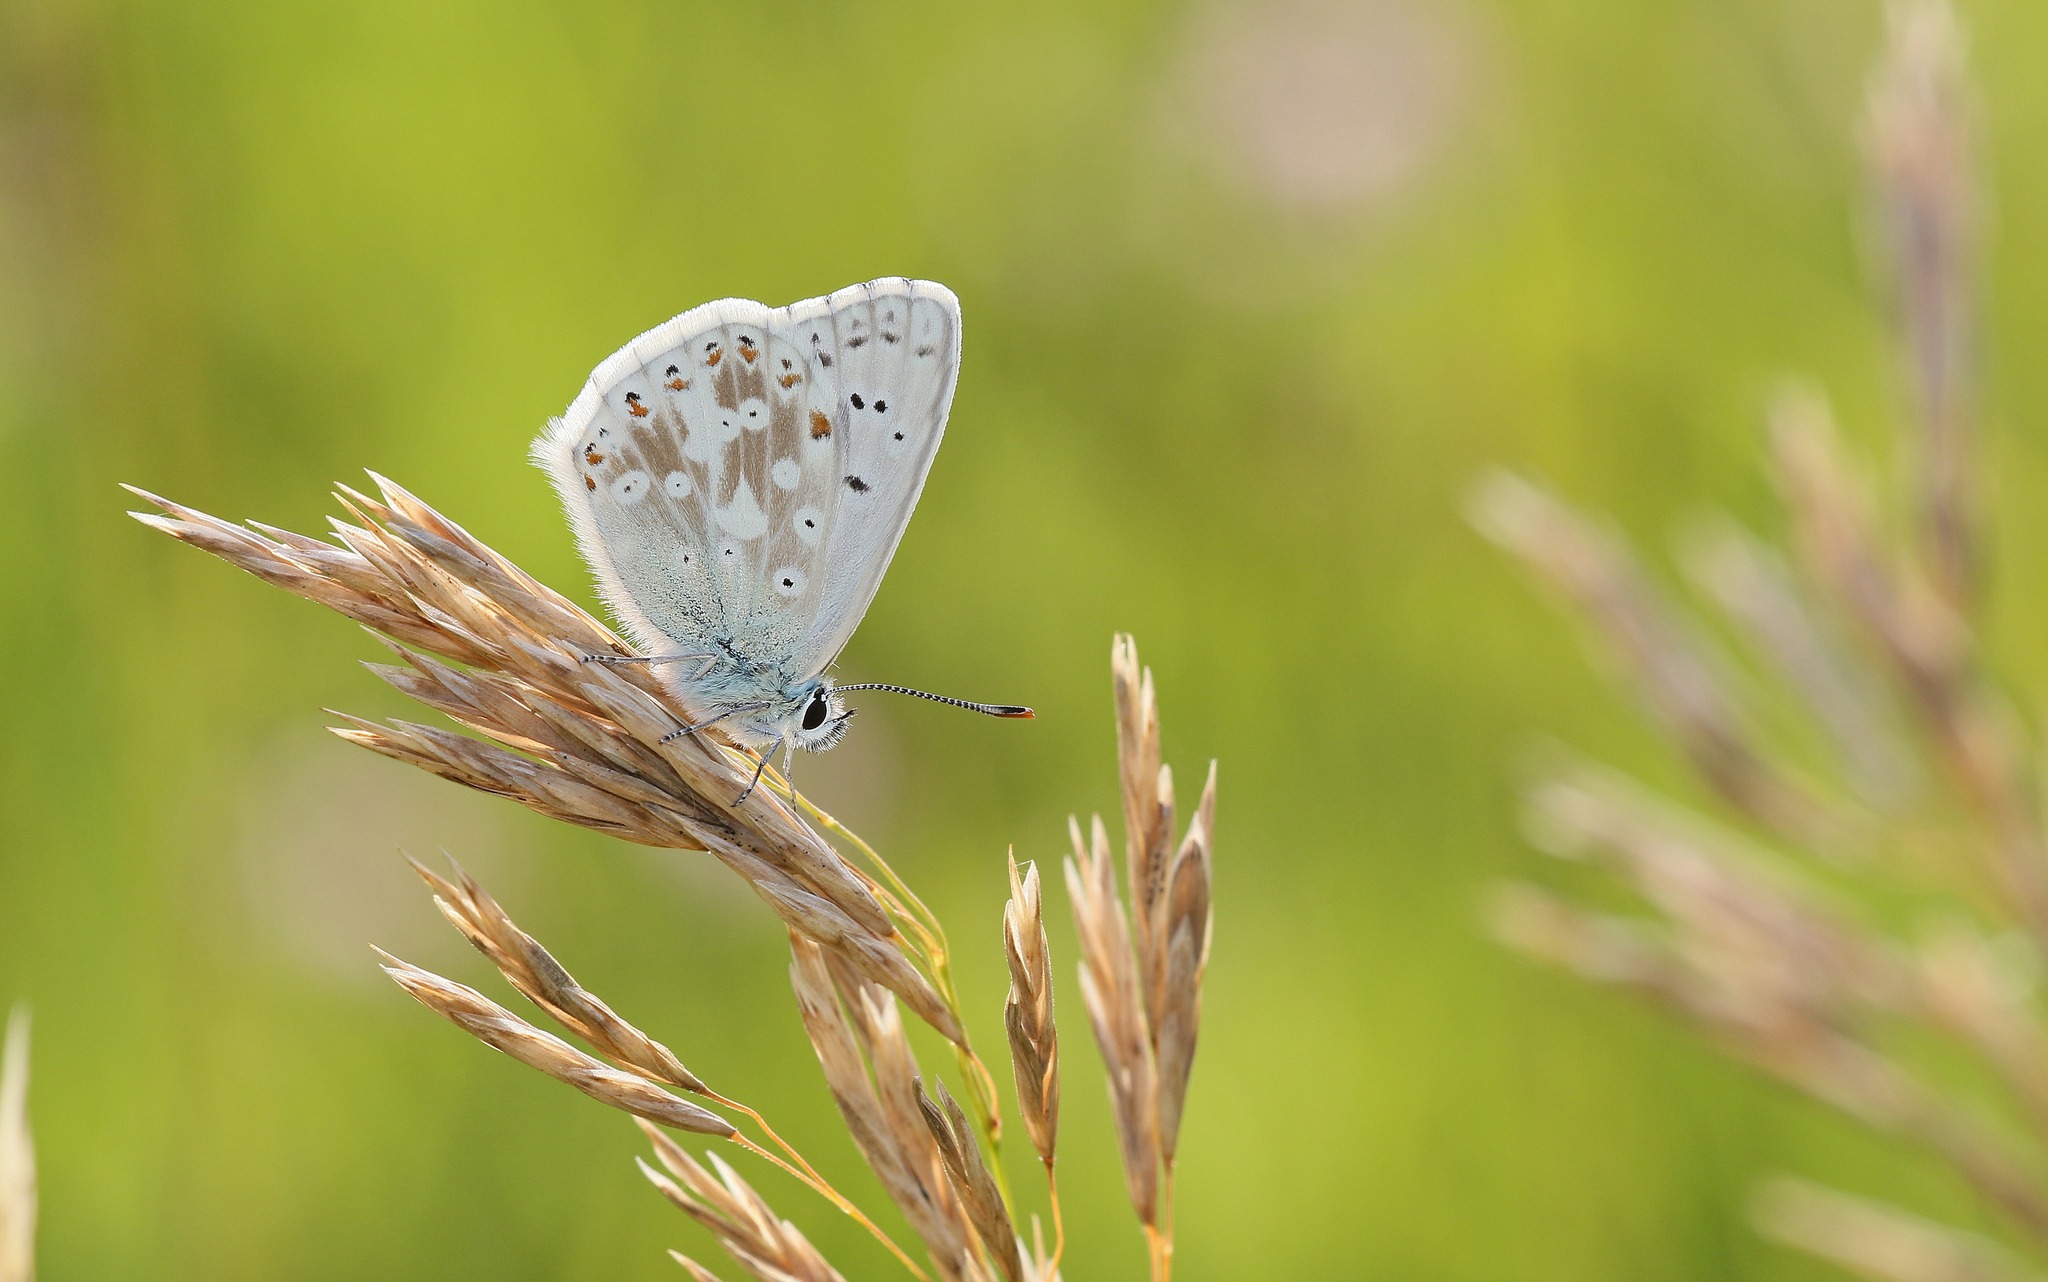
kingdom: Animalia
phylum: Arthropoda
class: Insecta
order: Lepidoptera
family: Lycaenidae
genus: Lysandra
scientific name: Lysandra coridon
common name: Chalkhill blue
